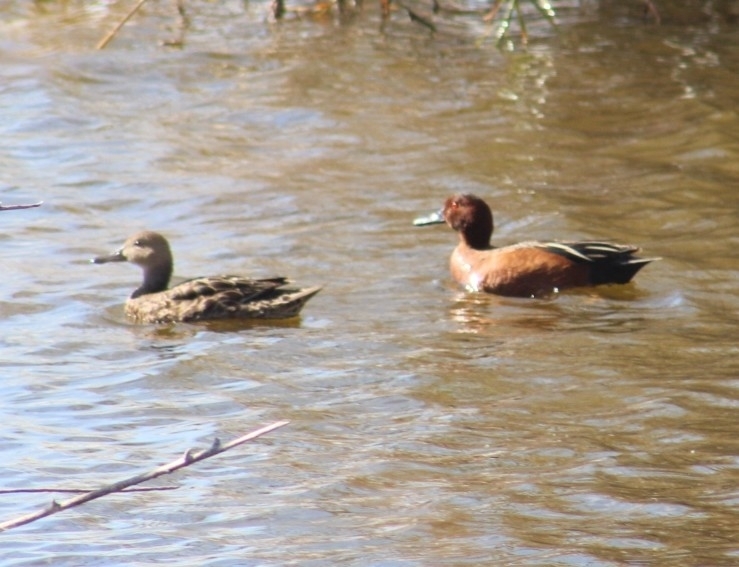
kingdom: Animalia
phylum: Chordata
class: Aves
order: Anseriformes
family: Anatidae
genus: Spatula
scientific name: Spatula cyanoptera
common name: Cinnamon teal
